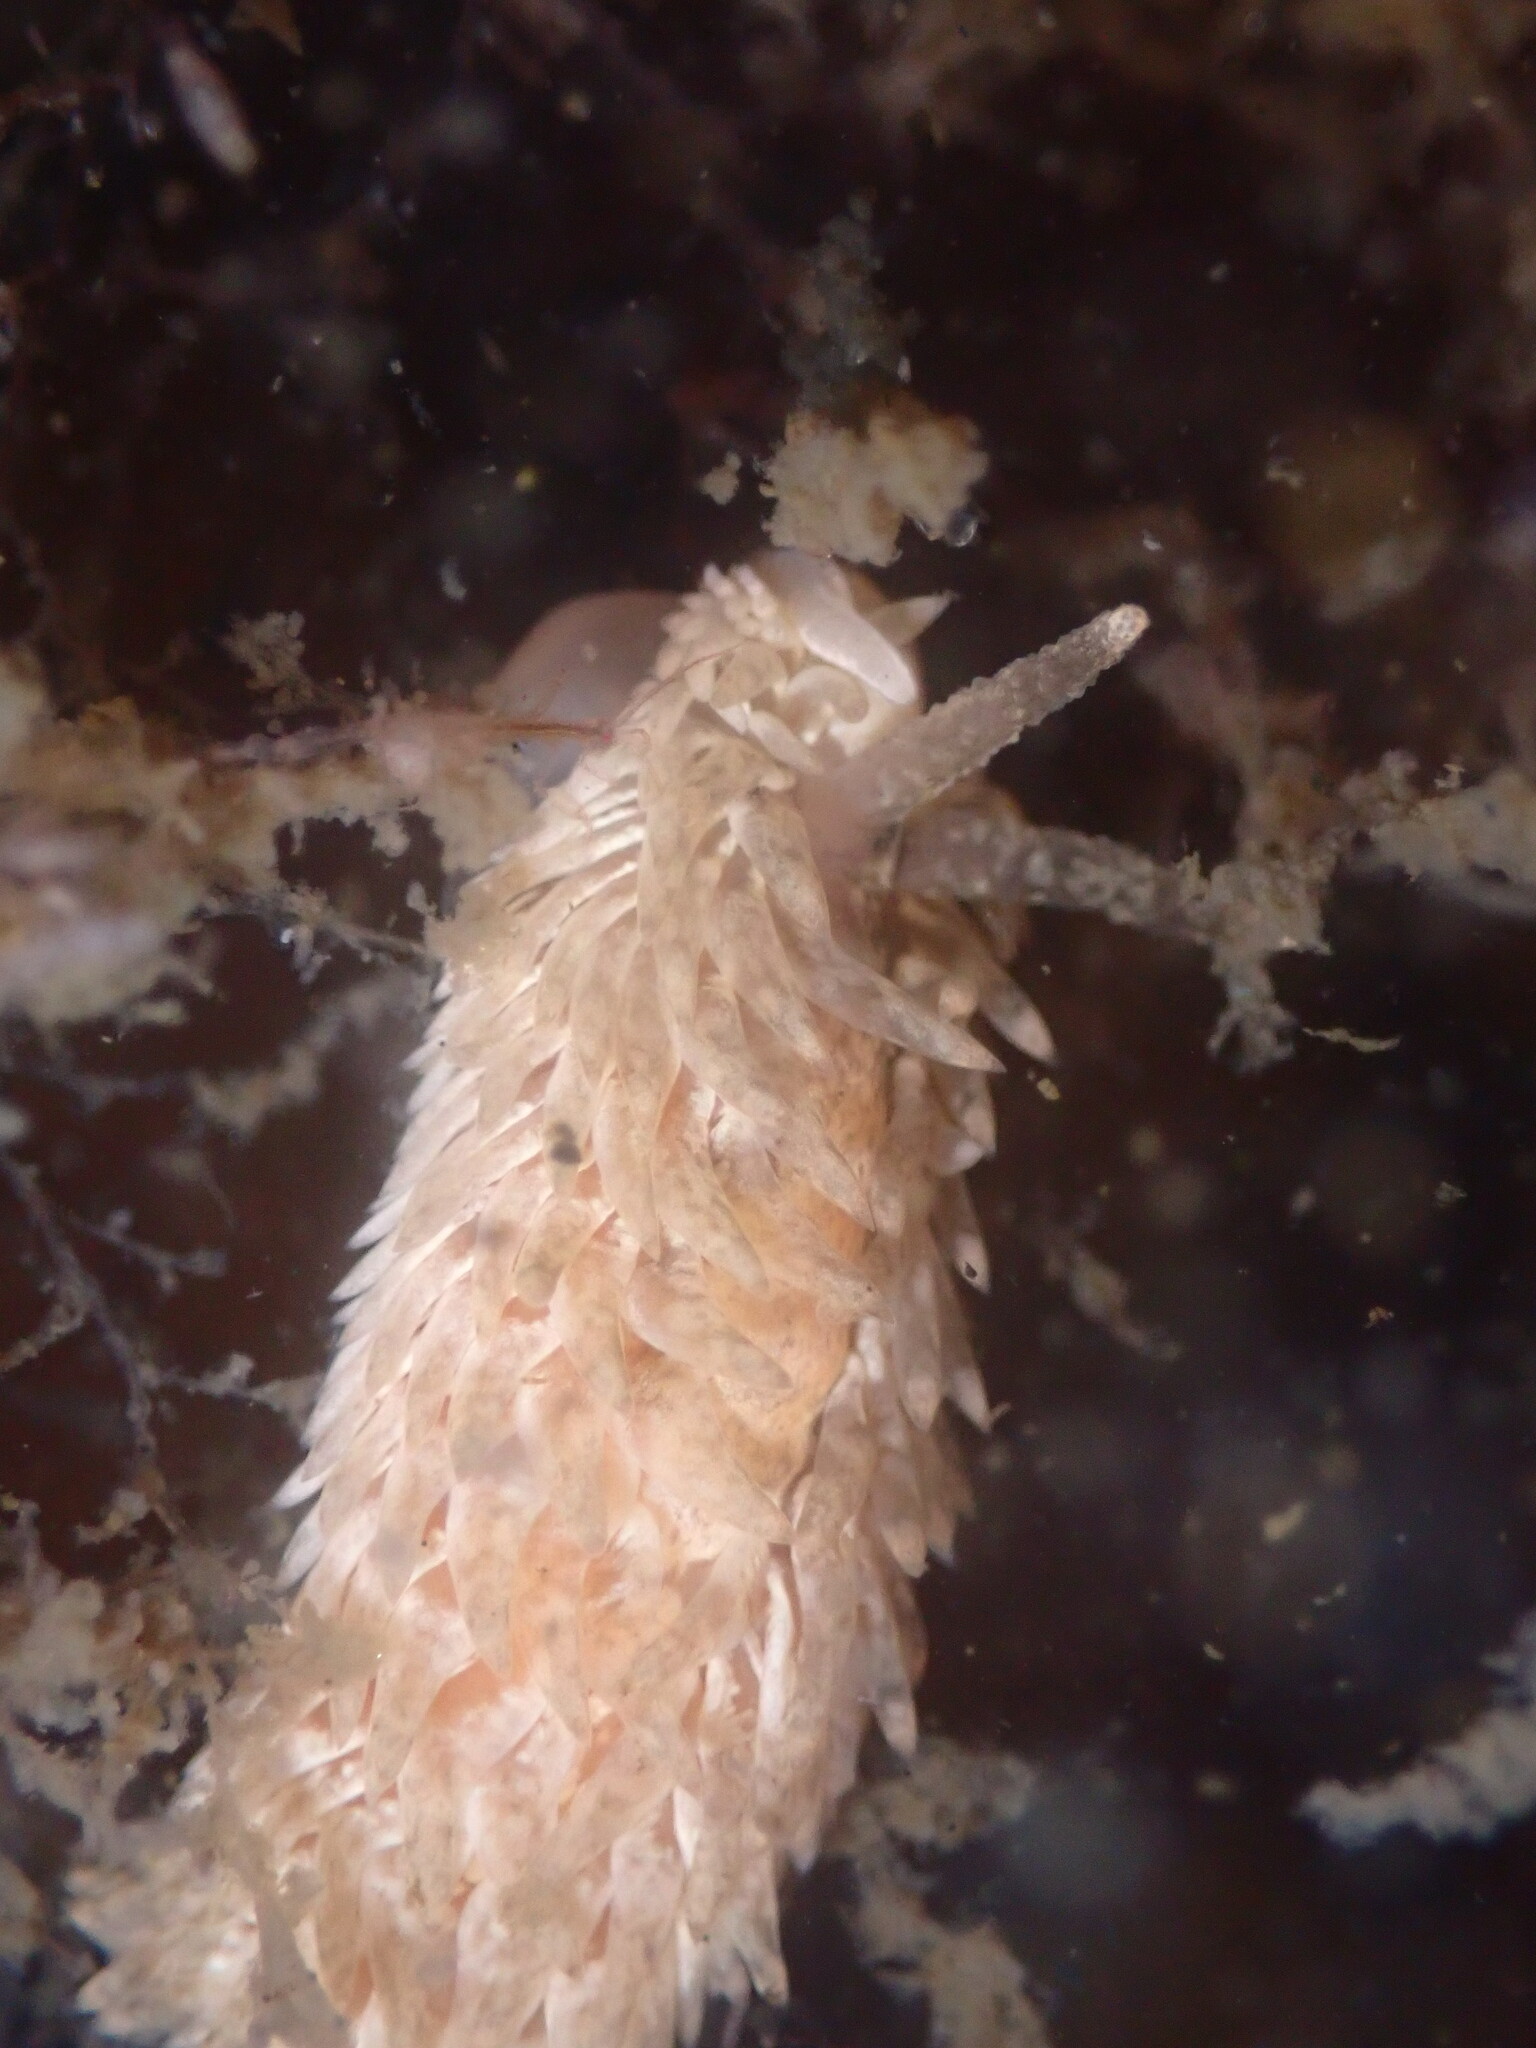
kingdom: Animalia
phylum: Mollusca
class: Gastropoda
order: Nudibranchia
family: Aeolidiidae
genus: Aeolidia
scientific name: Aeolidia loui
